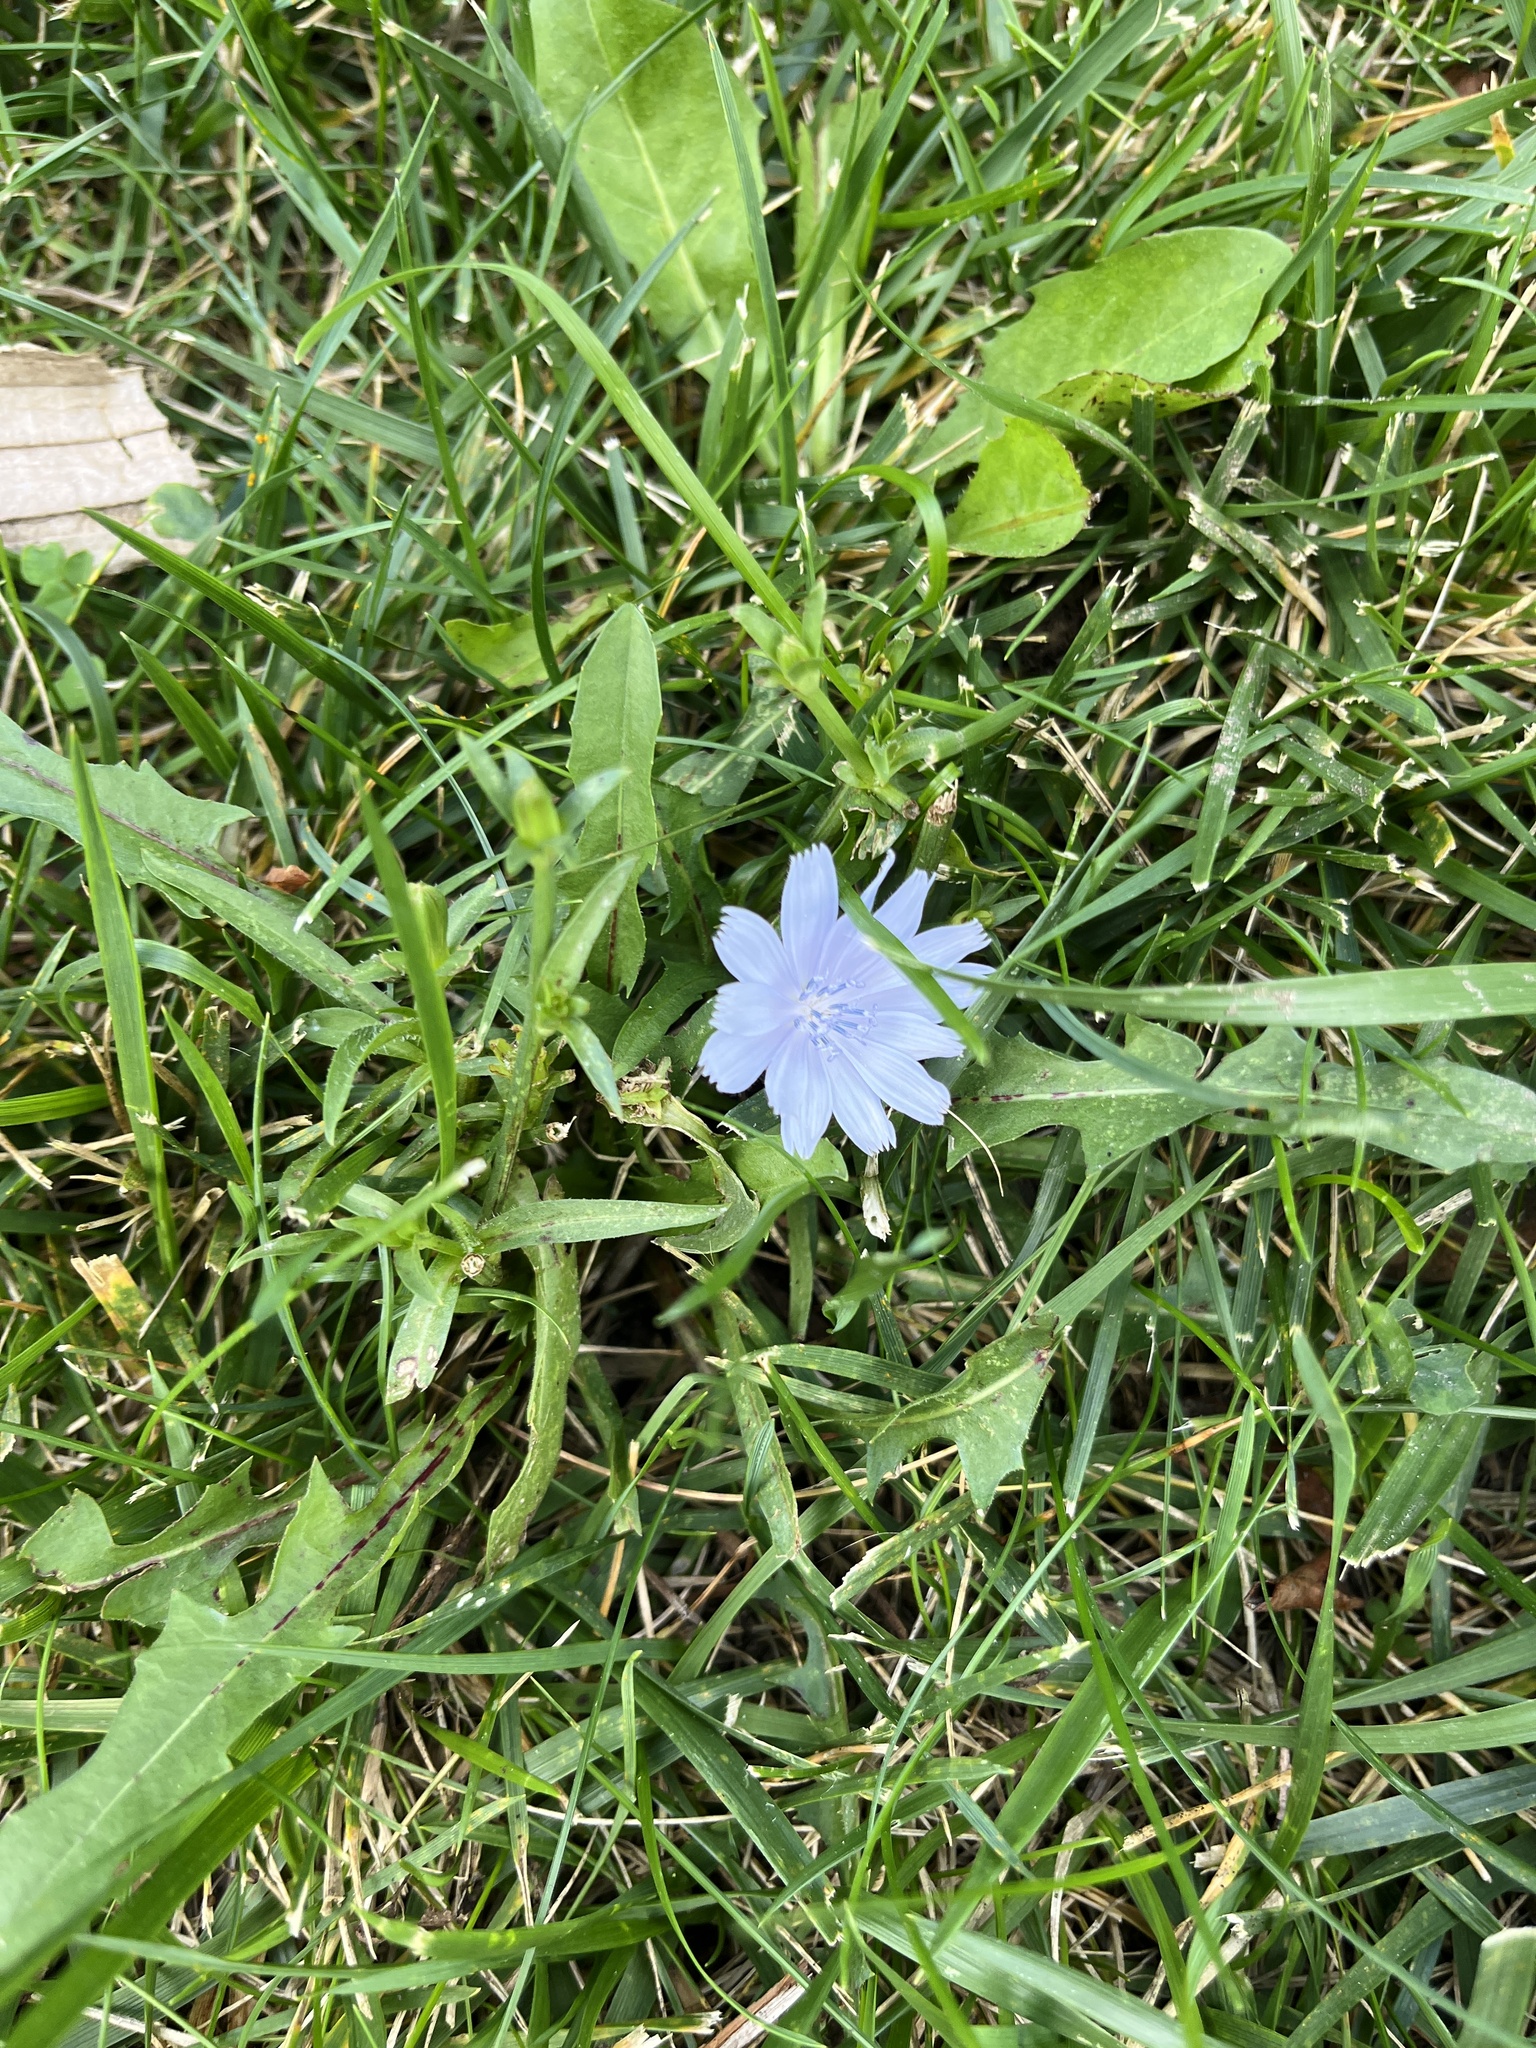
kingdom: Plantae
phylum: Tracheophyta
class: Magnoliopsida
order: Asterales
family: Asteraceae
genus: Cichorium
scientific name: Cichorium intybus
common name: Chicory
